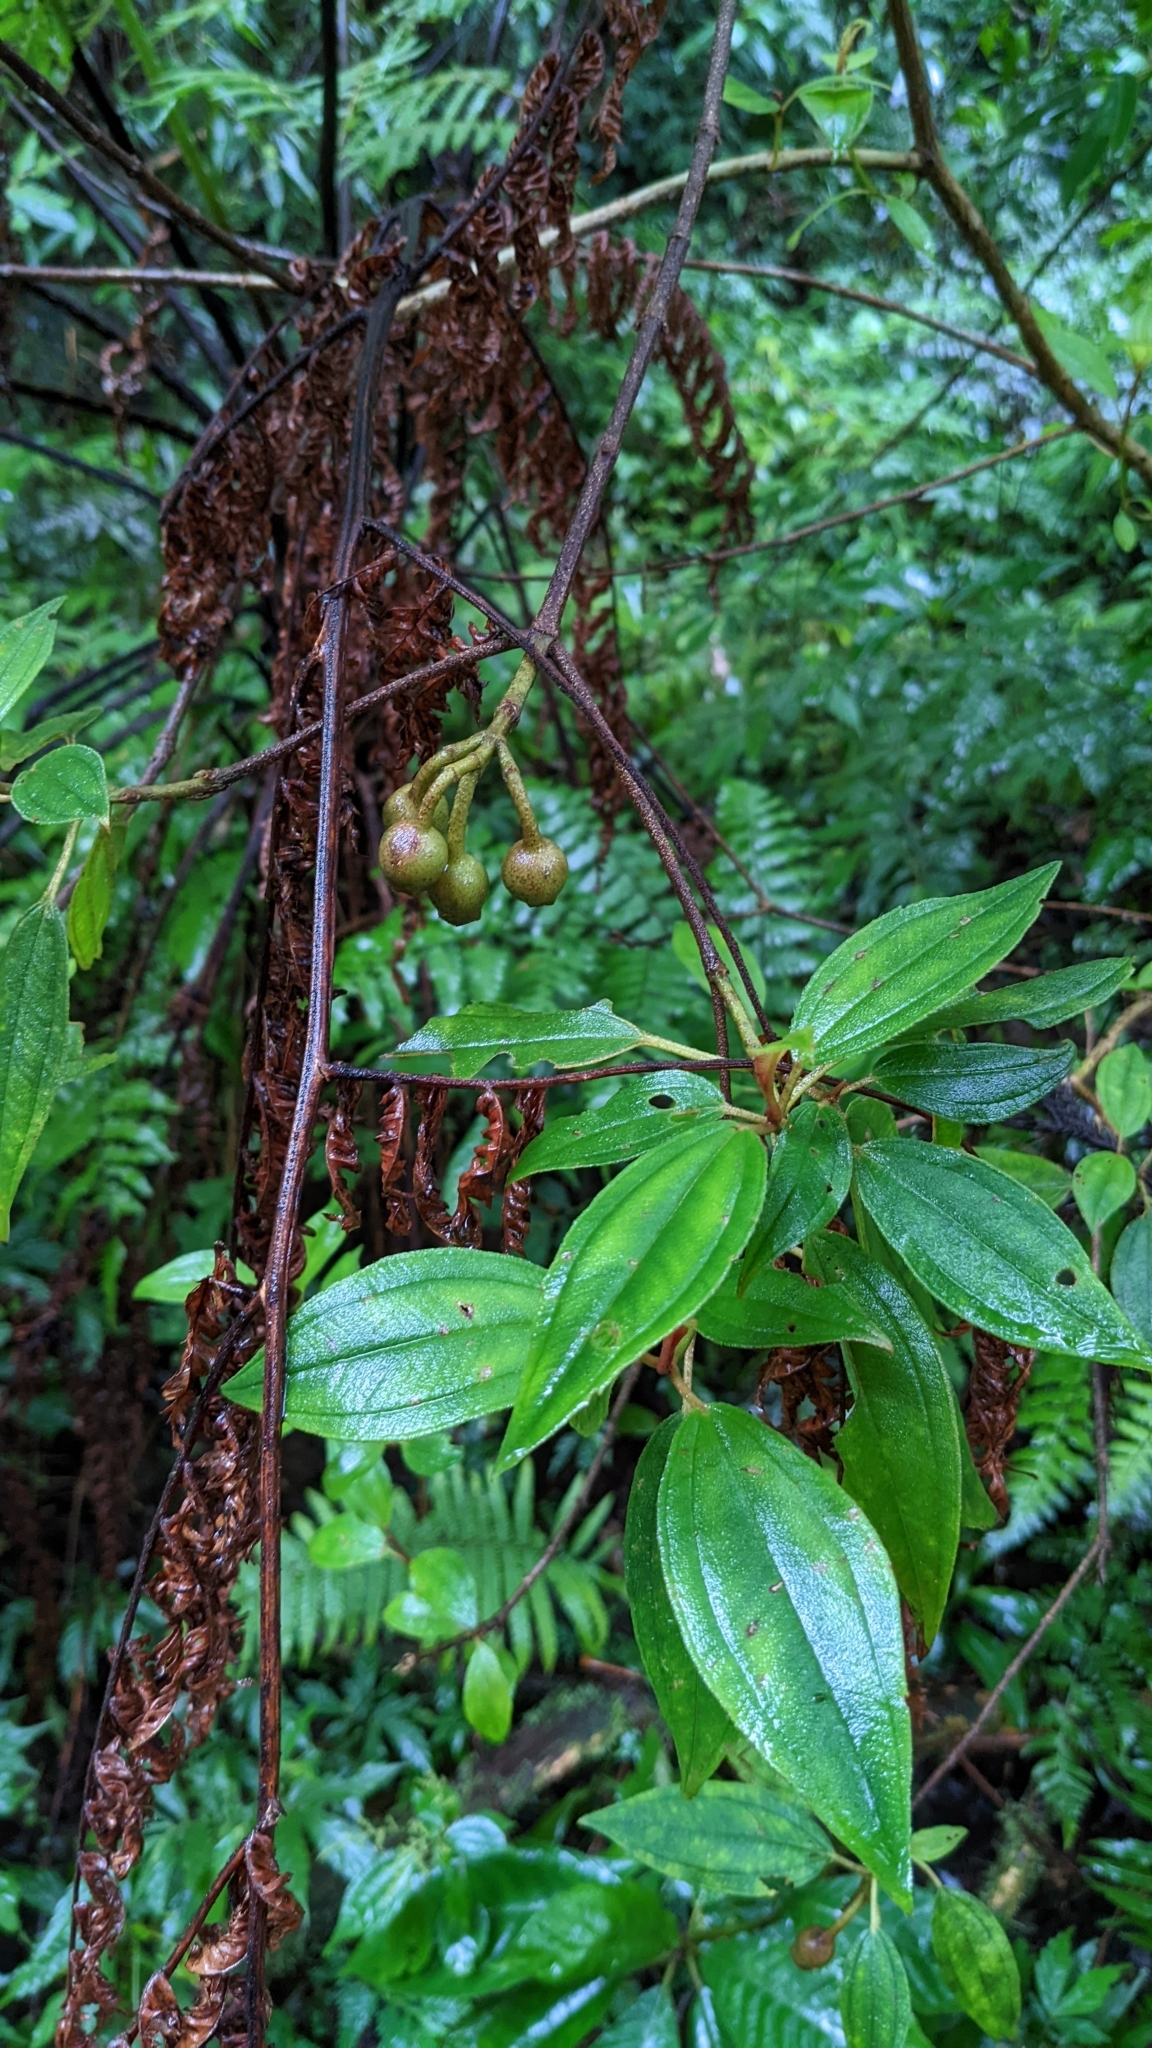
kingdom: Plantae
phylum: Tracheophyta
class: Magnoliopsida
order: Myrtales
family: Melastomataceae
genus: Melastoma
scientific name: Melastoma malabathricum
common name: Indian-rhododendron
